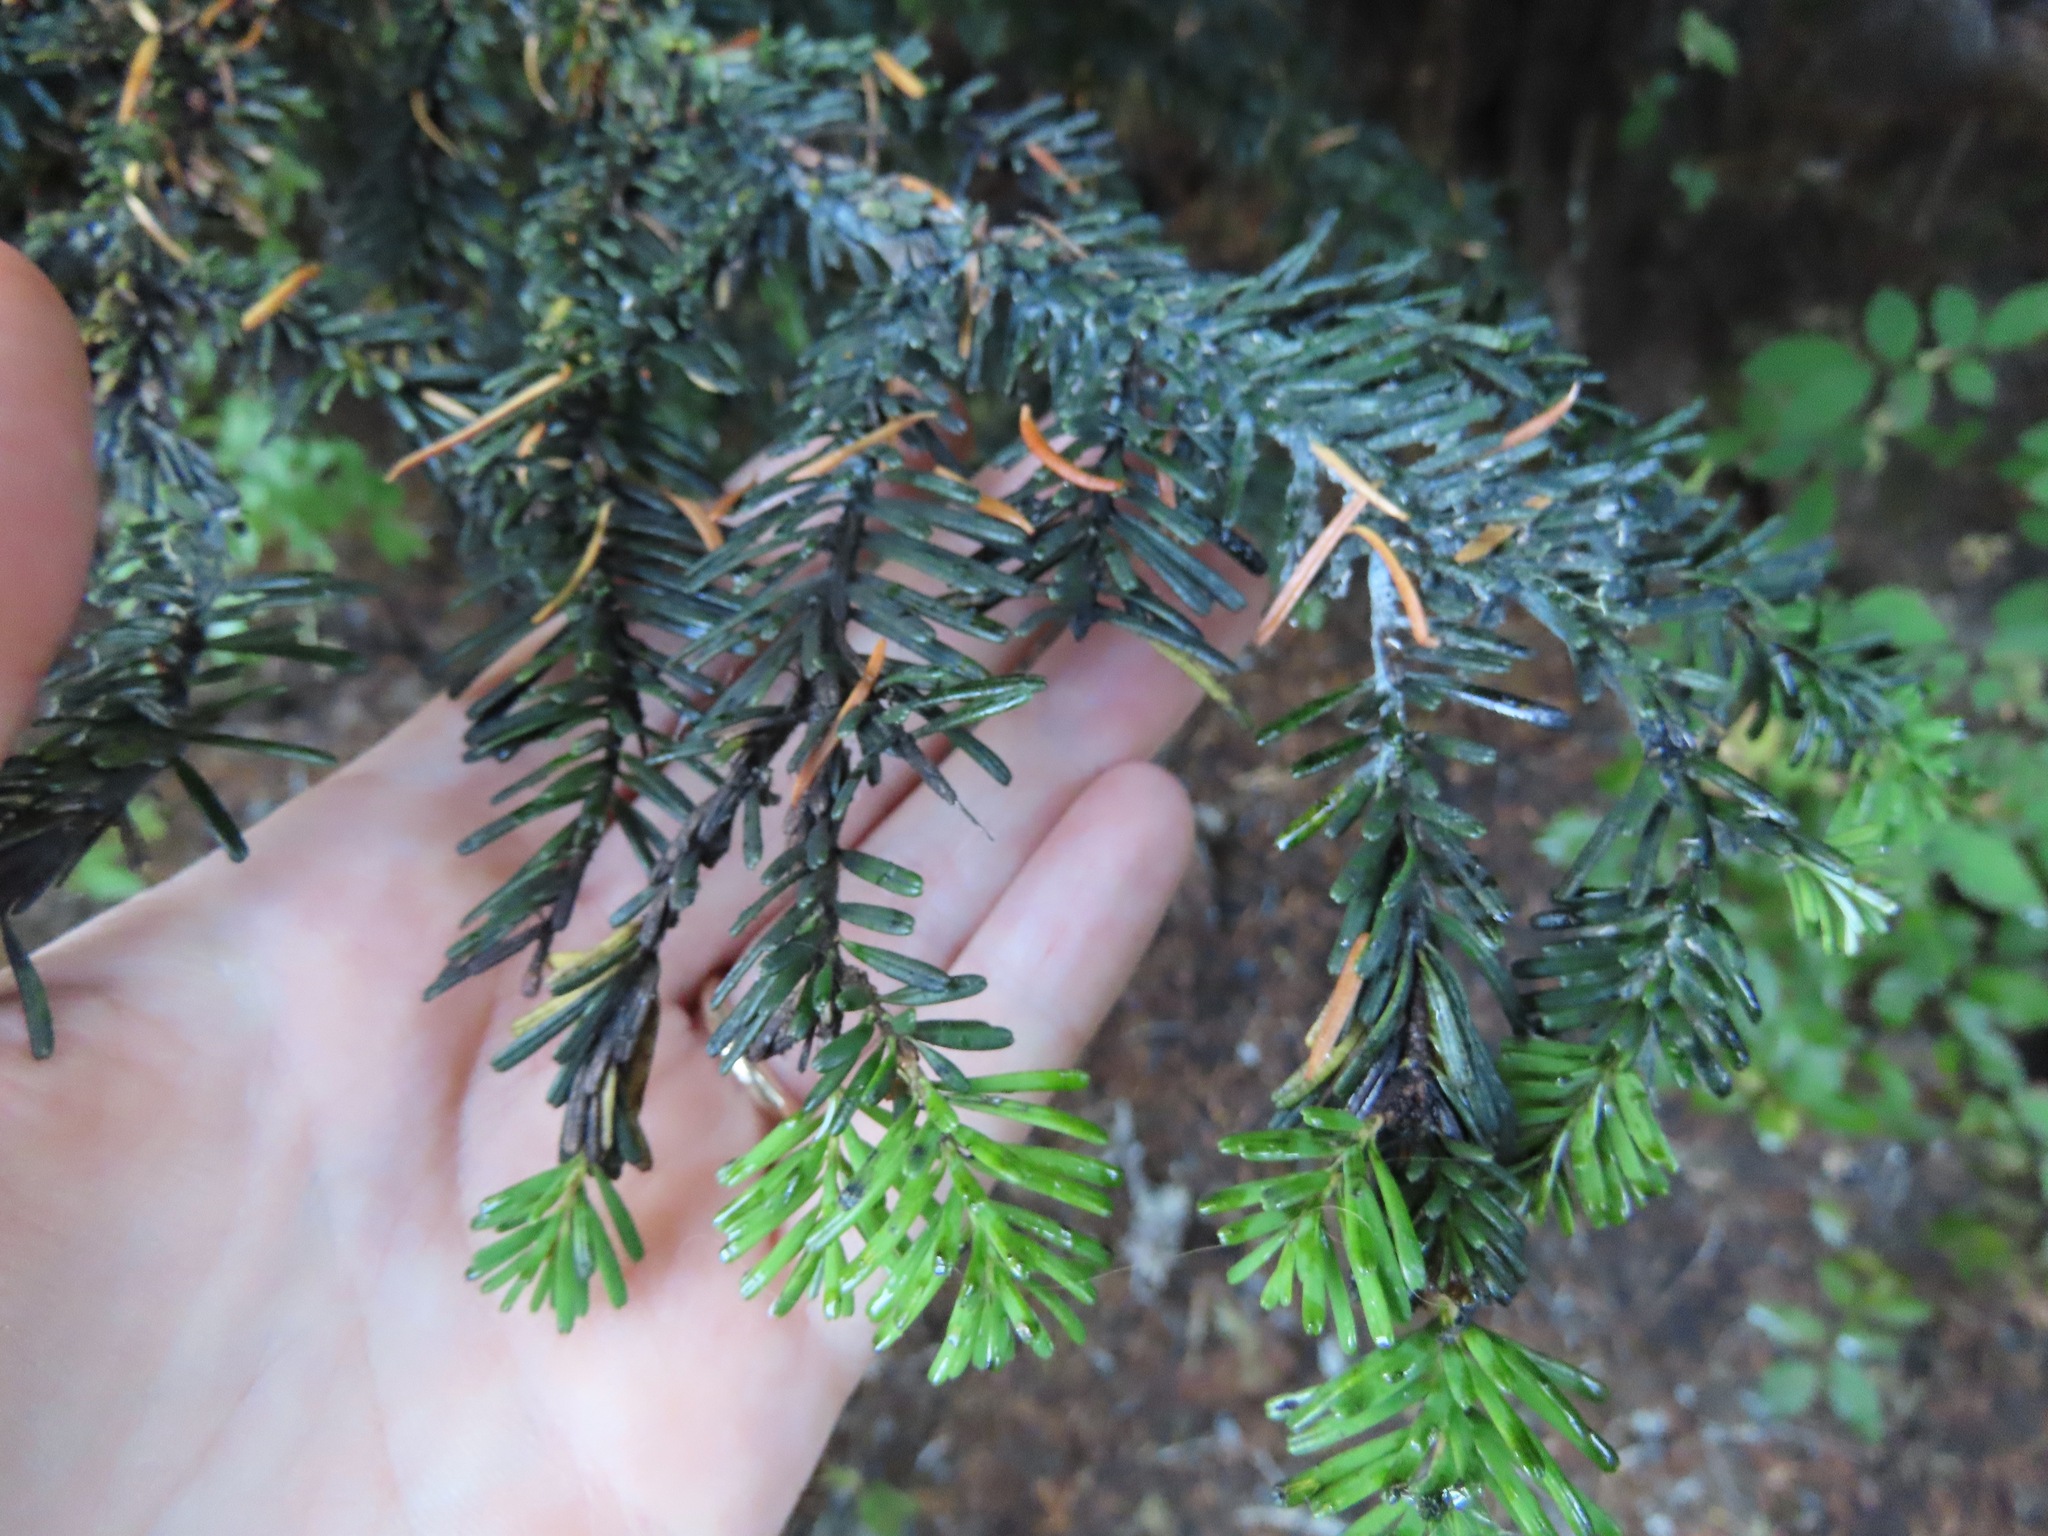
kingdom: Plantae
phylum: Tracheophyta
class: Pinopsida
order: Pinales
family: Pinaceae
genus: Abies
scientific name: Abies amabilis
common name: Pacific silver fir
